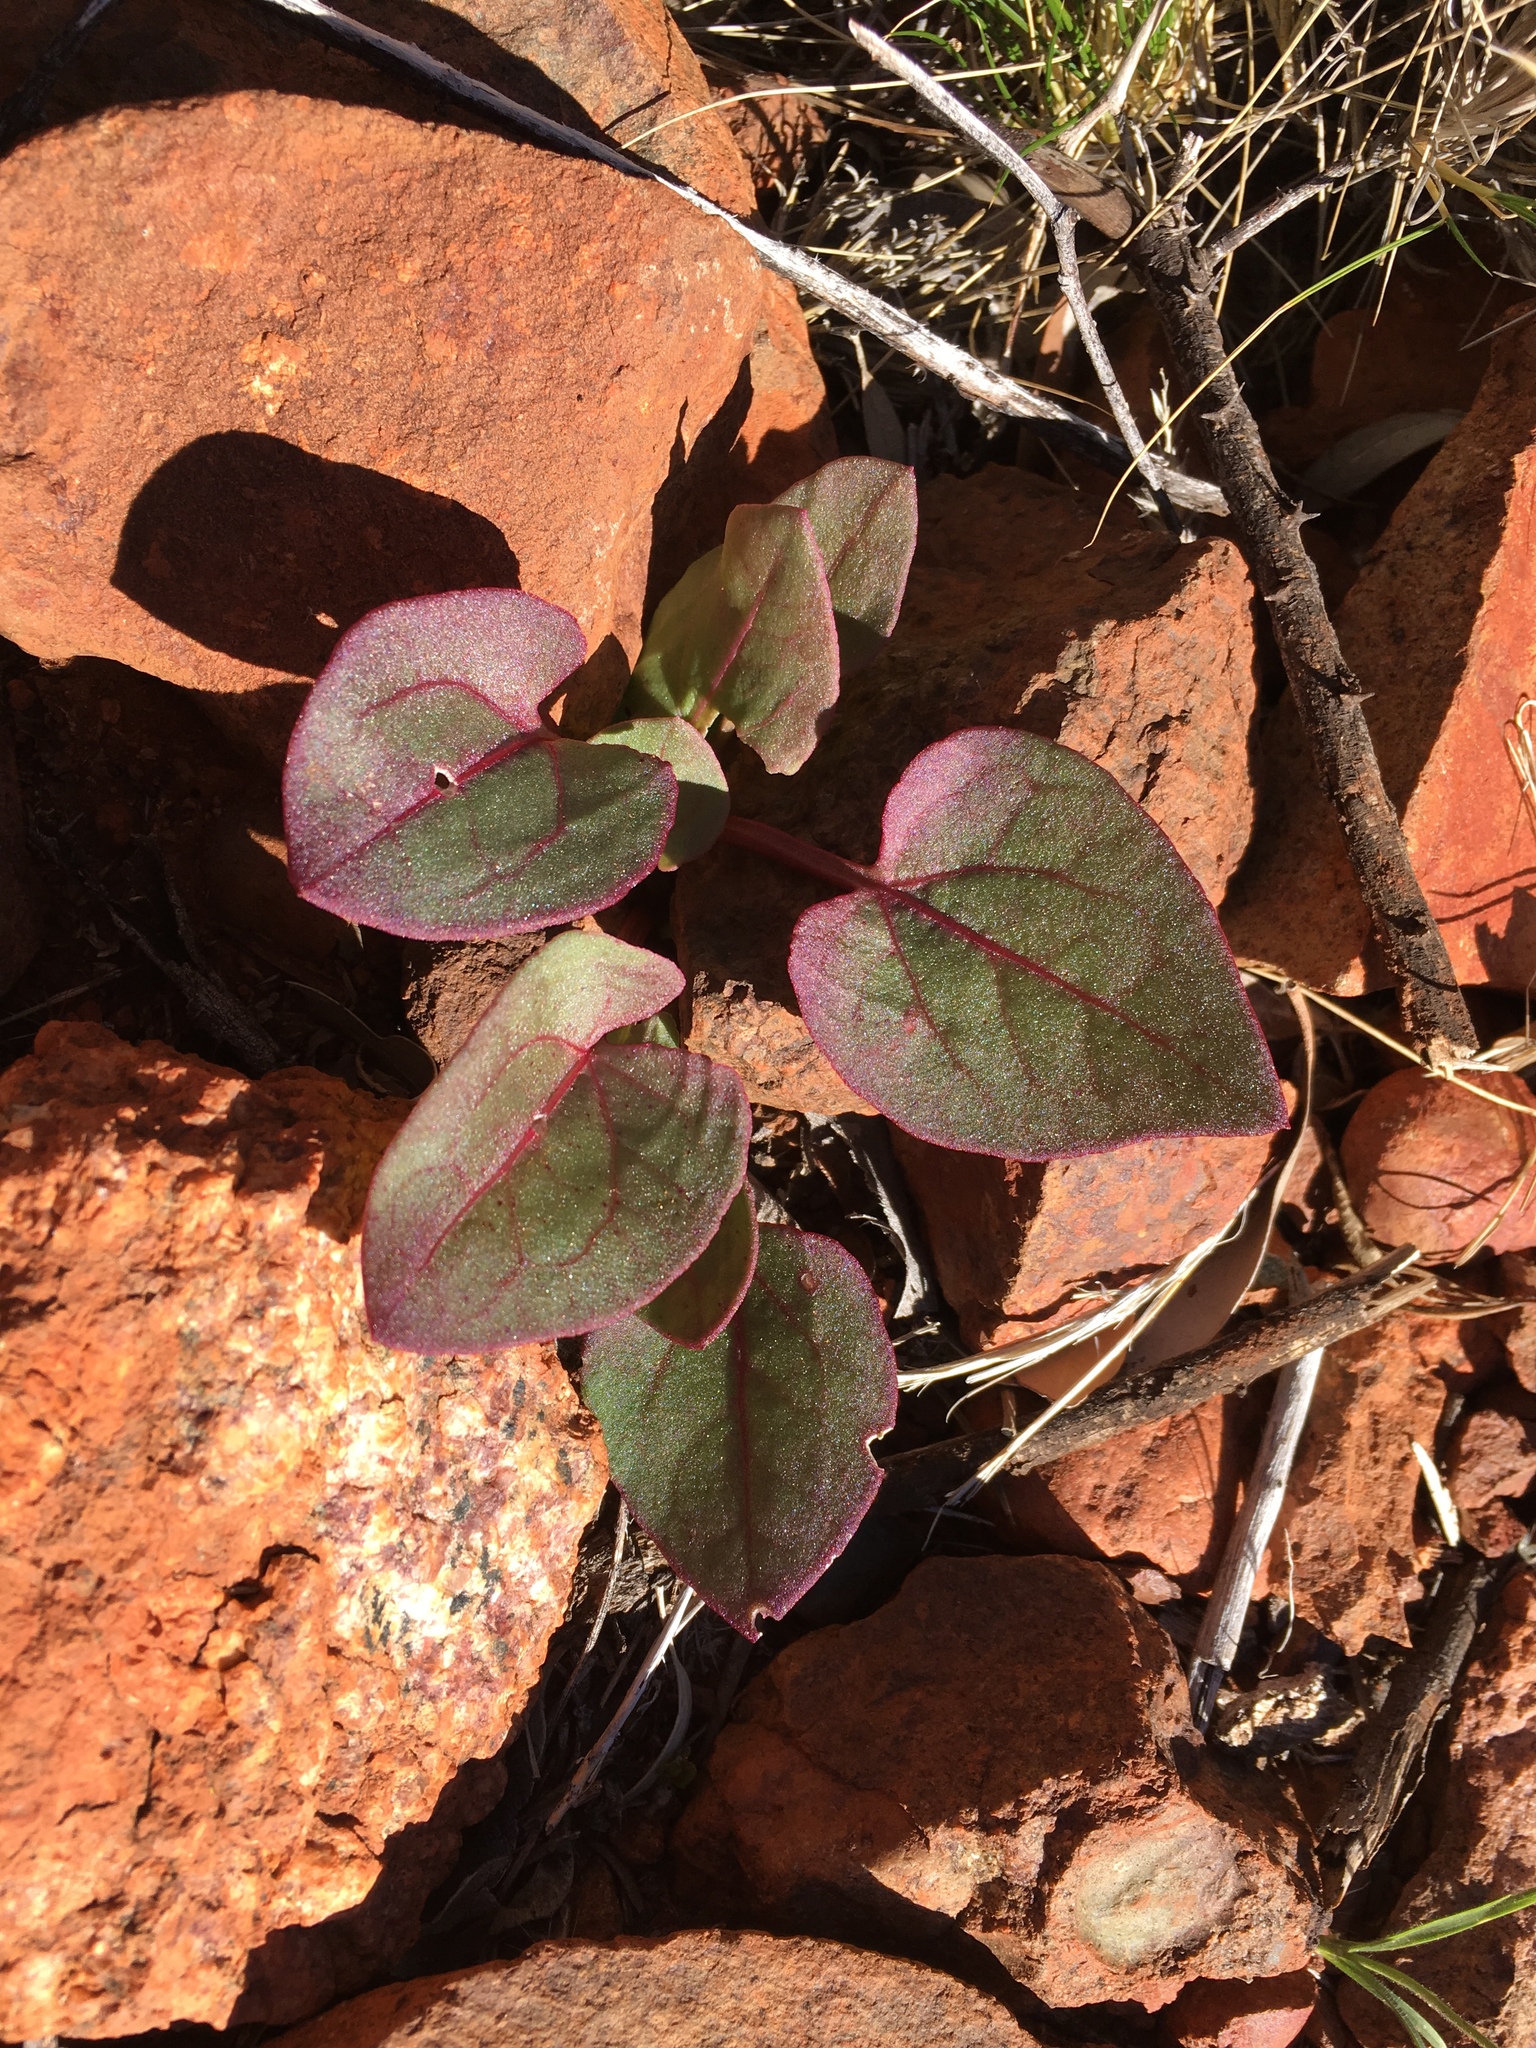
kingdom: Plantae
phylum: Tracheophyta
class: Magnoliopsida
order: Caryophyllales
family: Polygonaceae
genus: Rumex
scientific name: Rumex vesicarius
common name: Bladder dock
